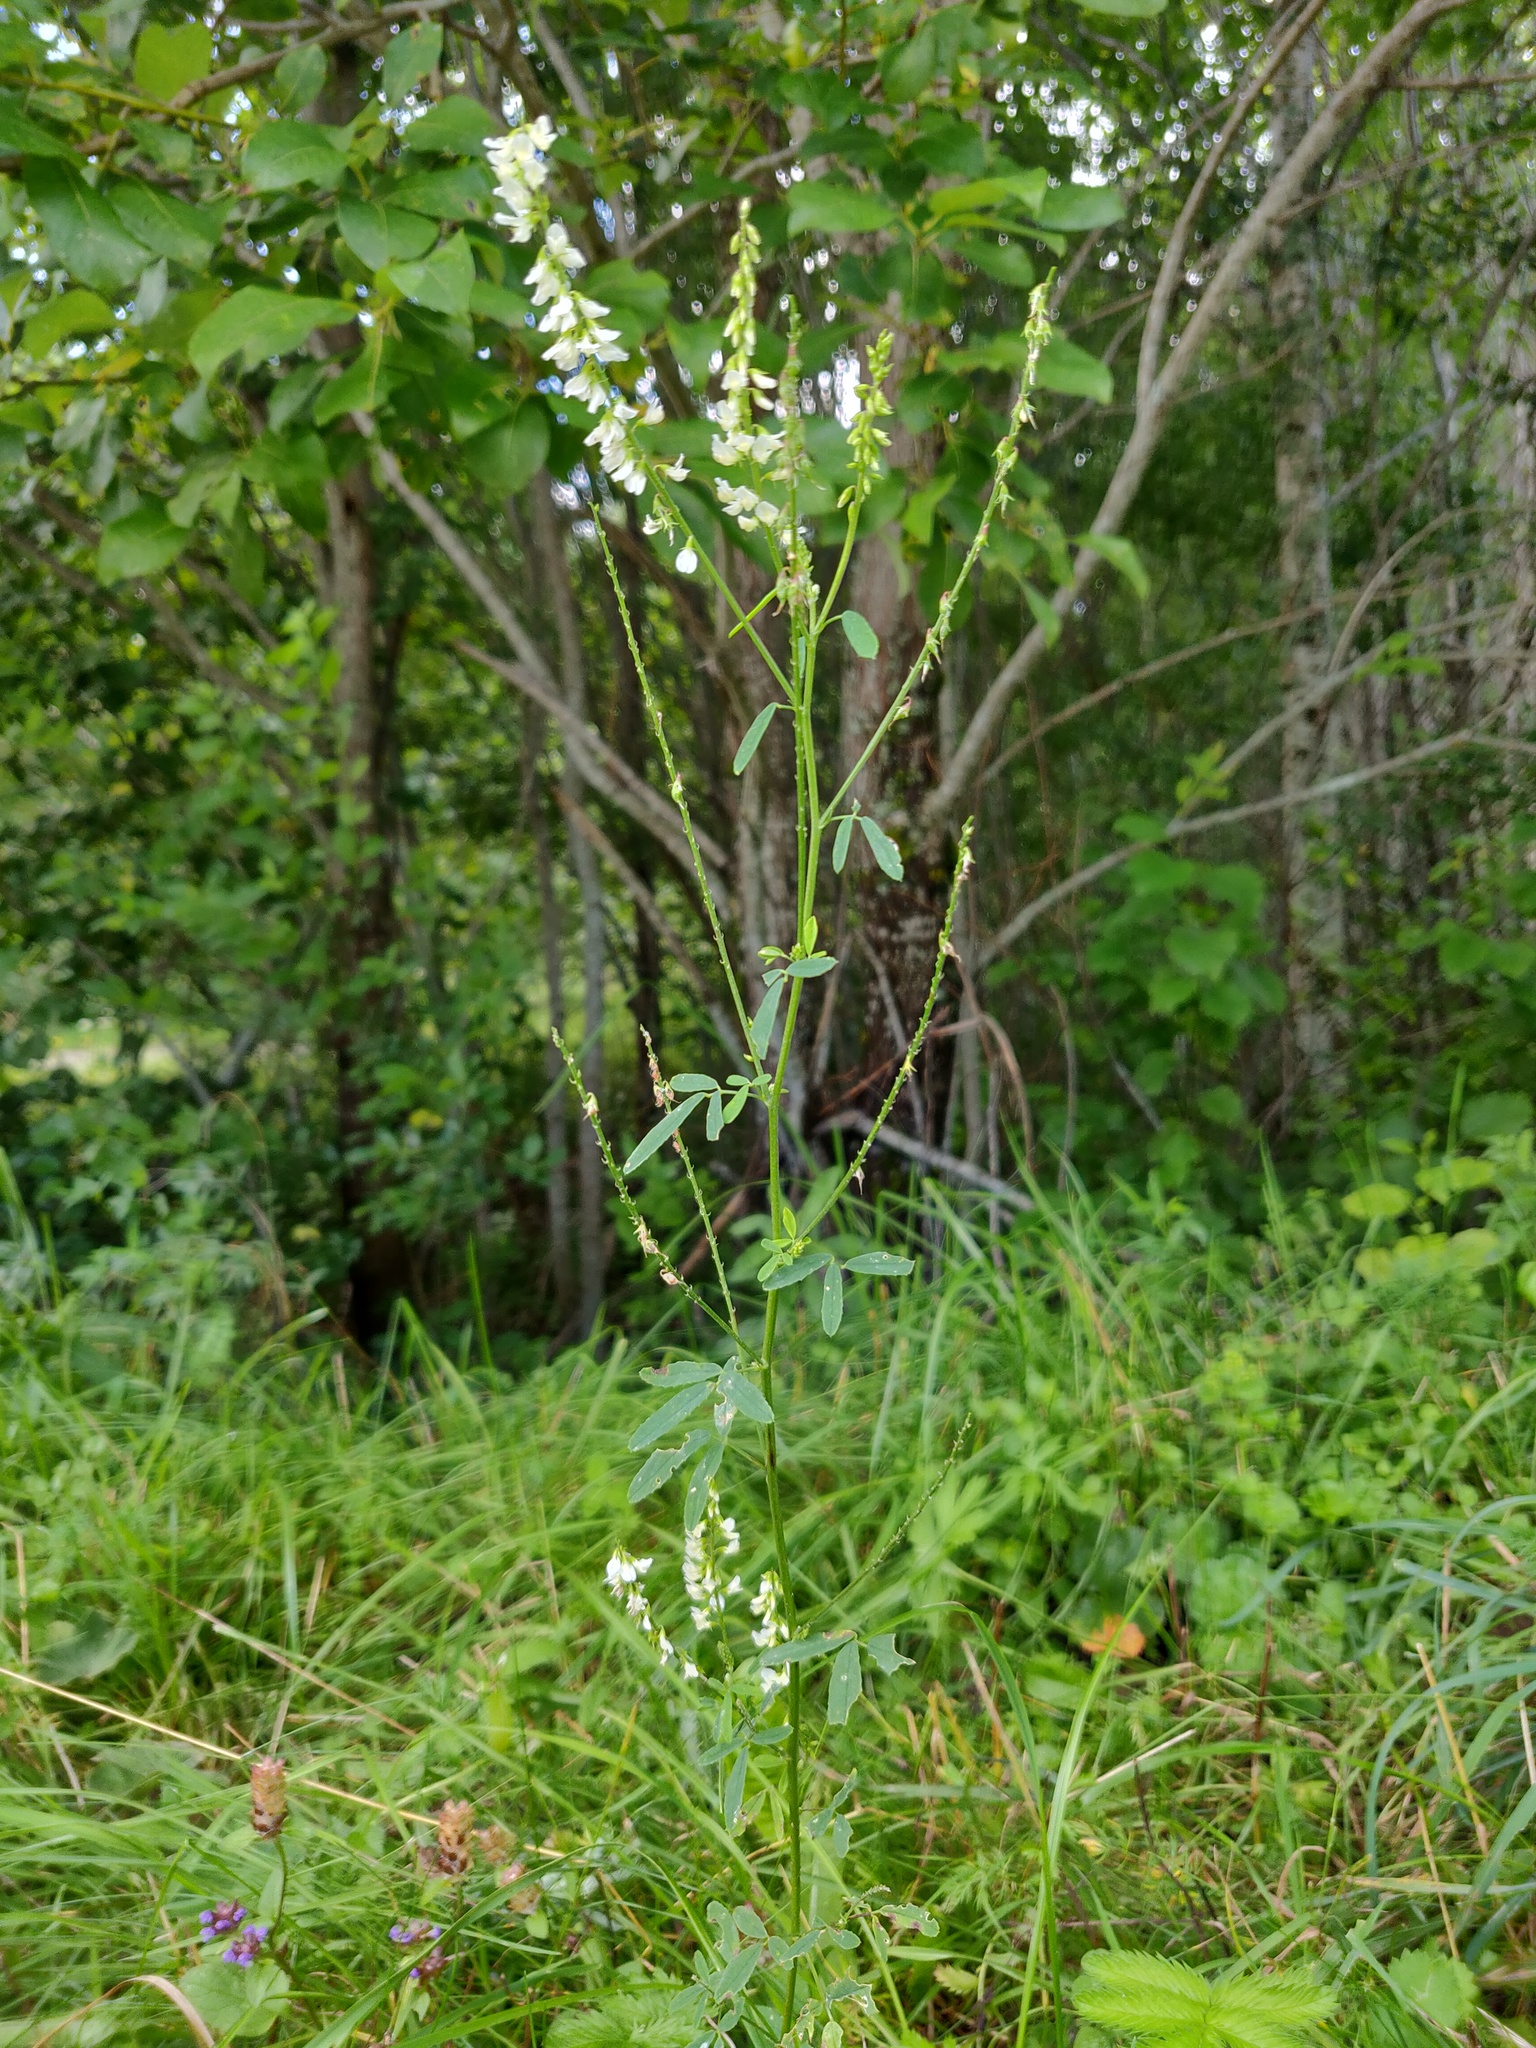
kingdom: Plantae
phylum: Tracheophyta
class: Magnoliopsida
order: Fabales
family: Fabaceae
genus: Melilotus
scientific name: Melilotus albus
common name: White melilot
